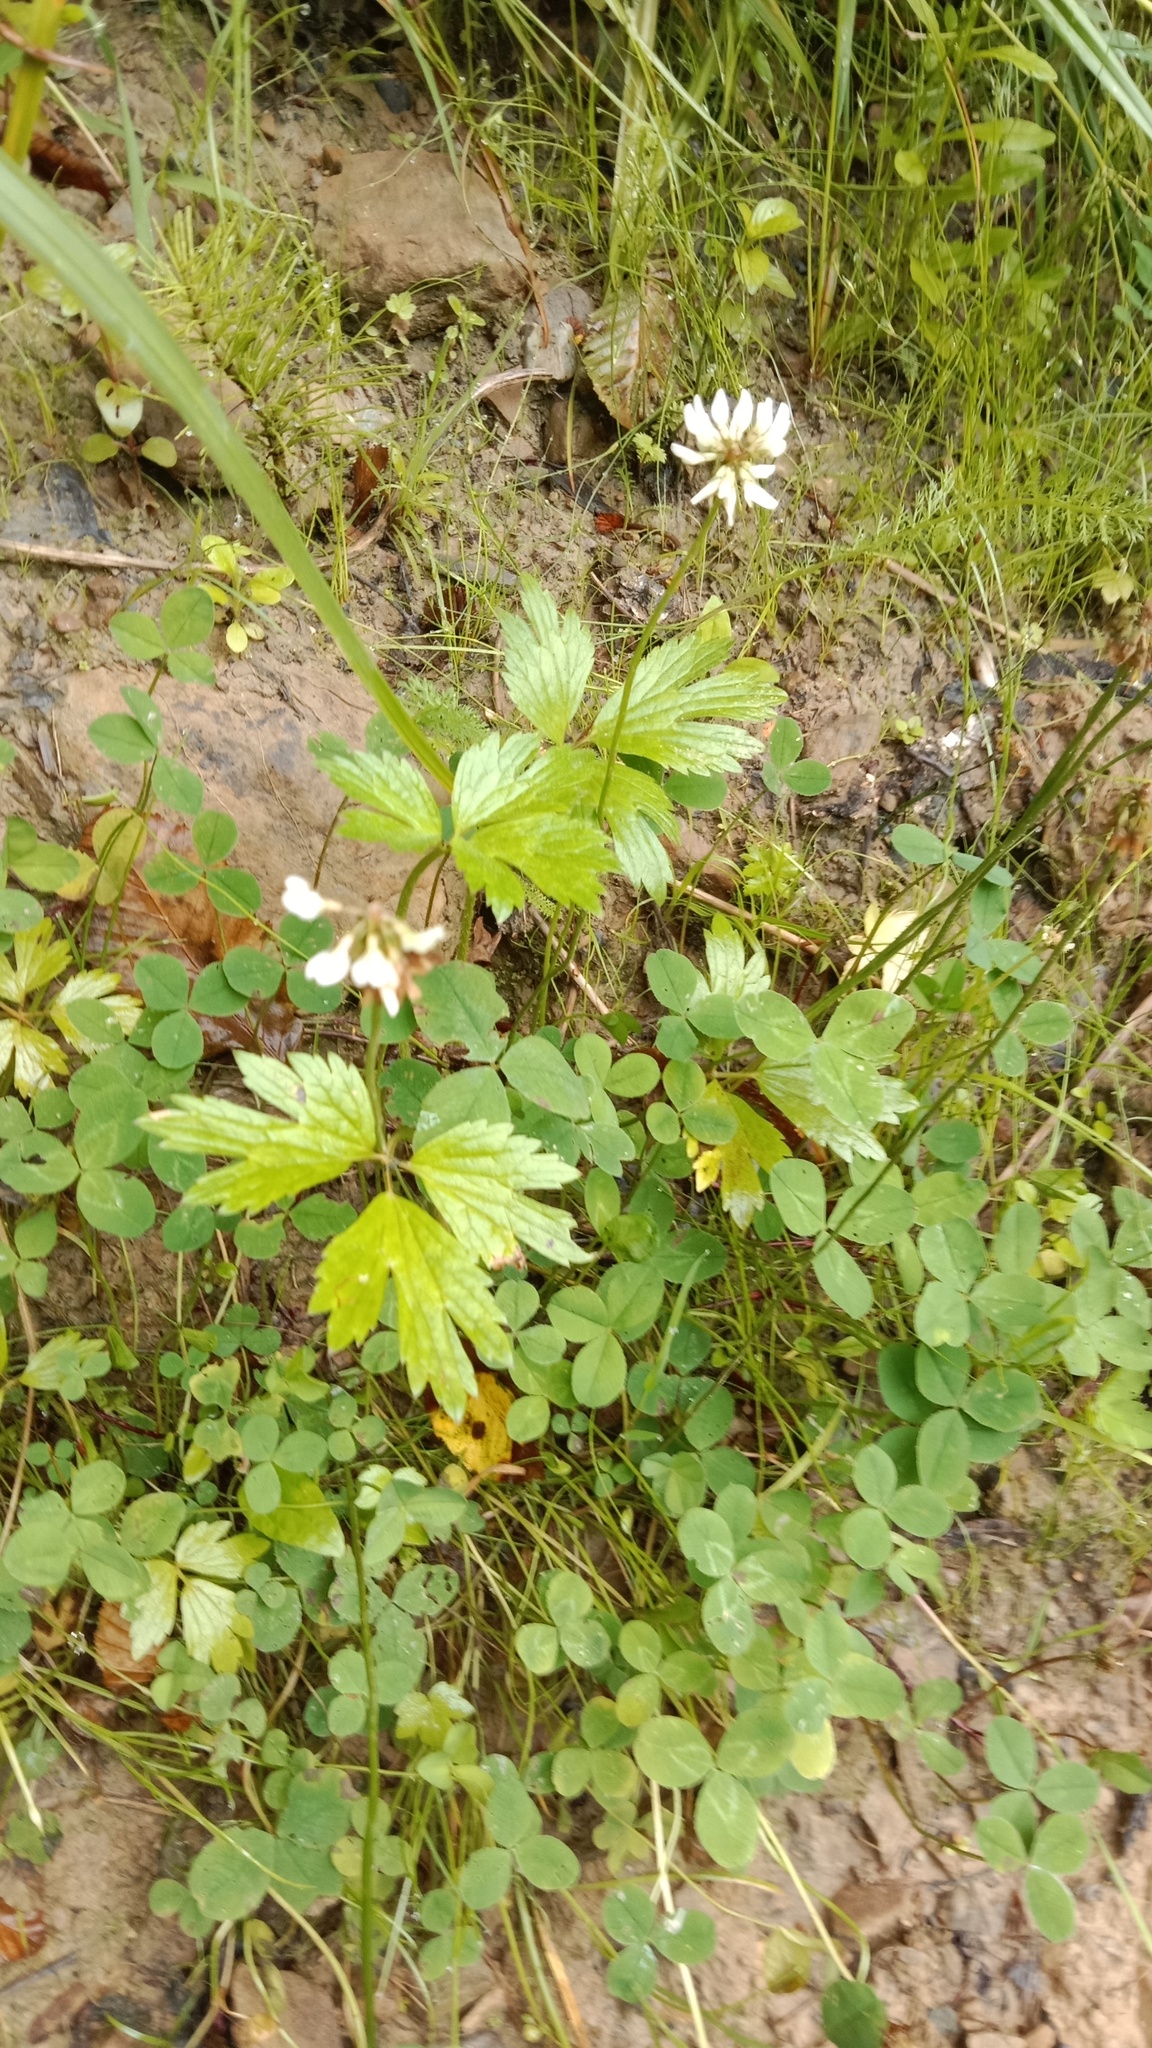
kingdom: Plantae
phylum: Tracheophyta
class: Magnoliopsida
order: Brassicales
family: Brassicaceae
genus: Cardamine
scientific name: Cardamine bulbifera
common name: Coralroot bittercress
